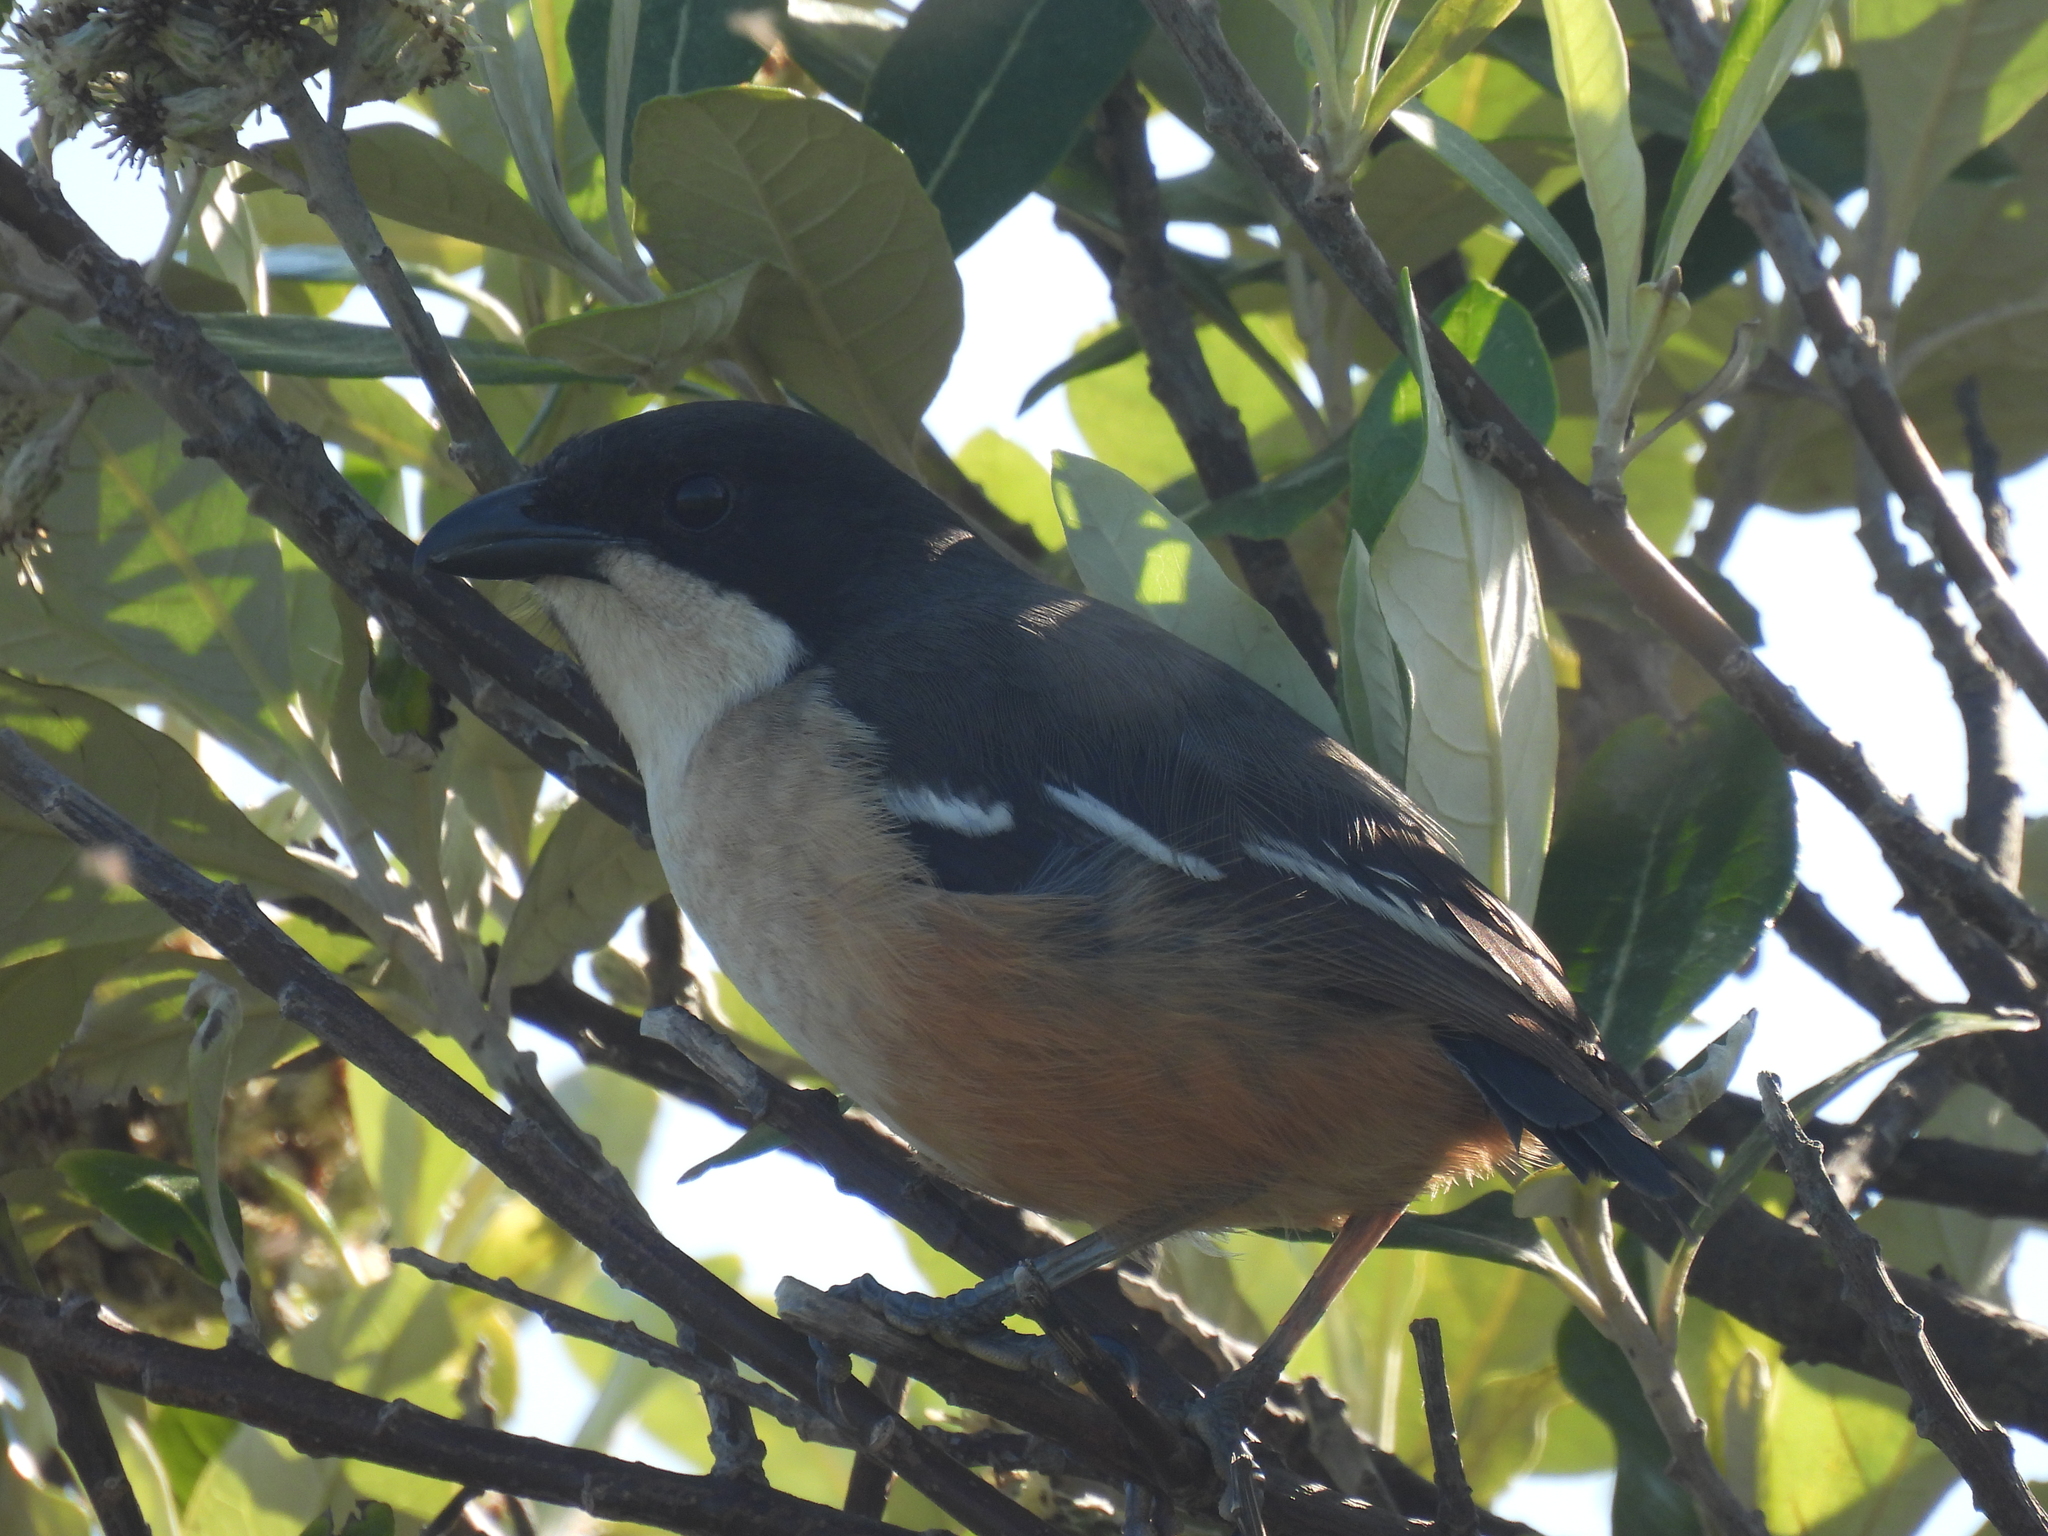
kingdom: Animalia
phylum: Chordata
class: Aves
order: Passeriformes
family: Malaconotidae
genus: Laniarius
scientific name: Laniarius ferrugineus
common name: Southern boubou
